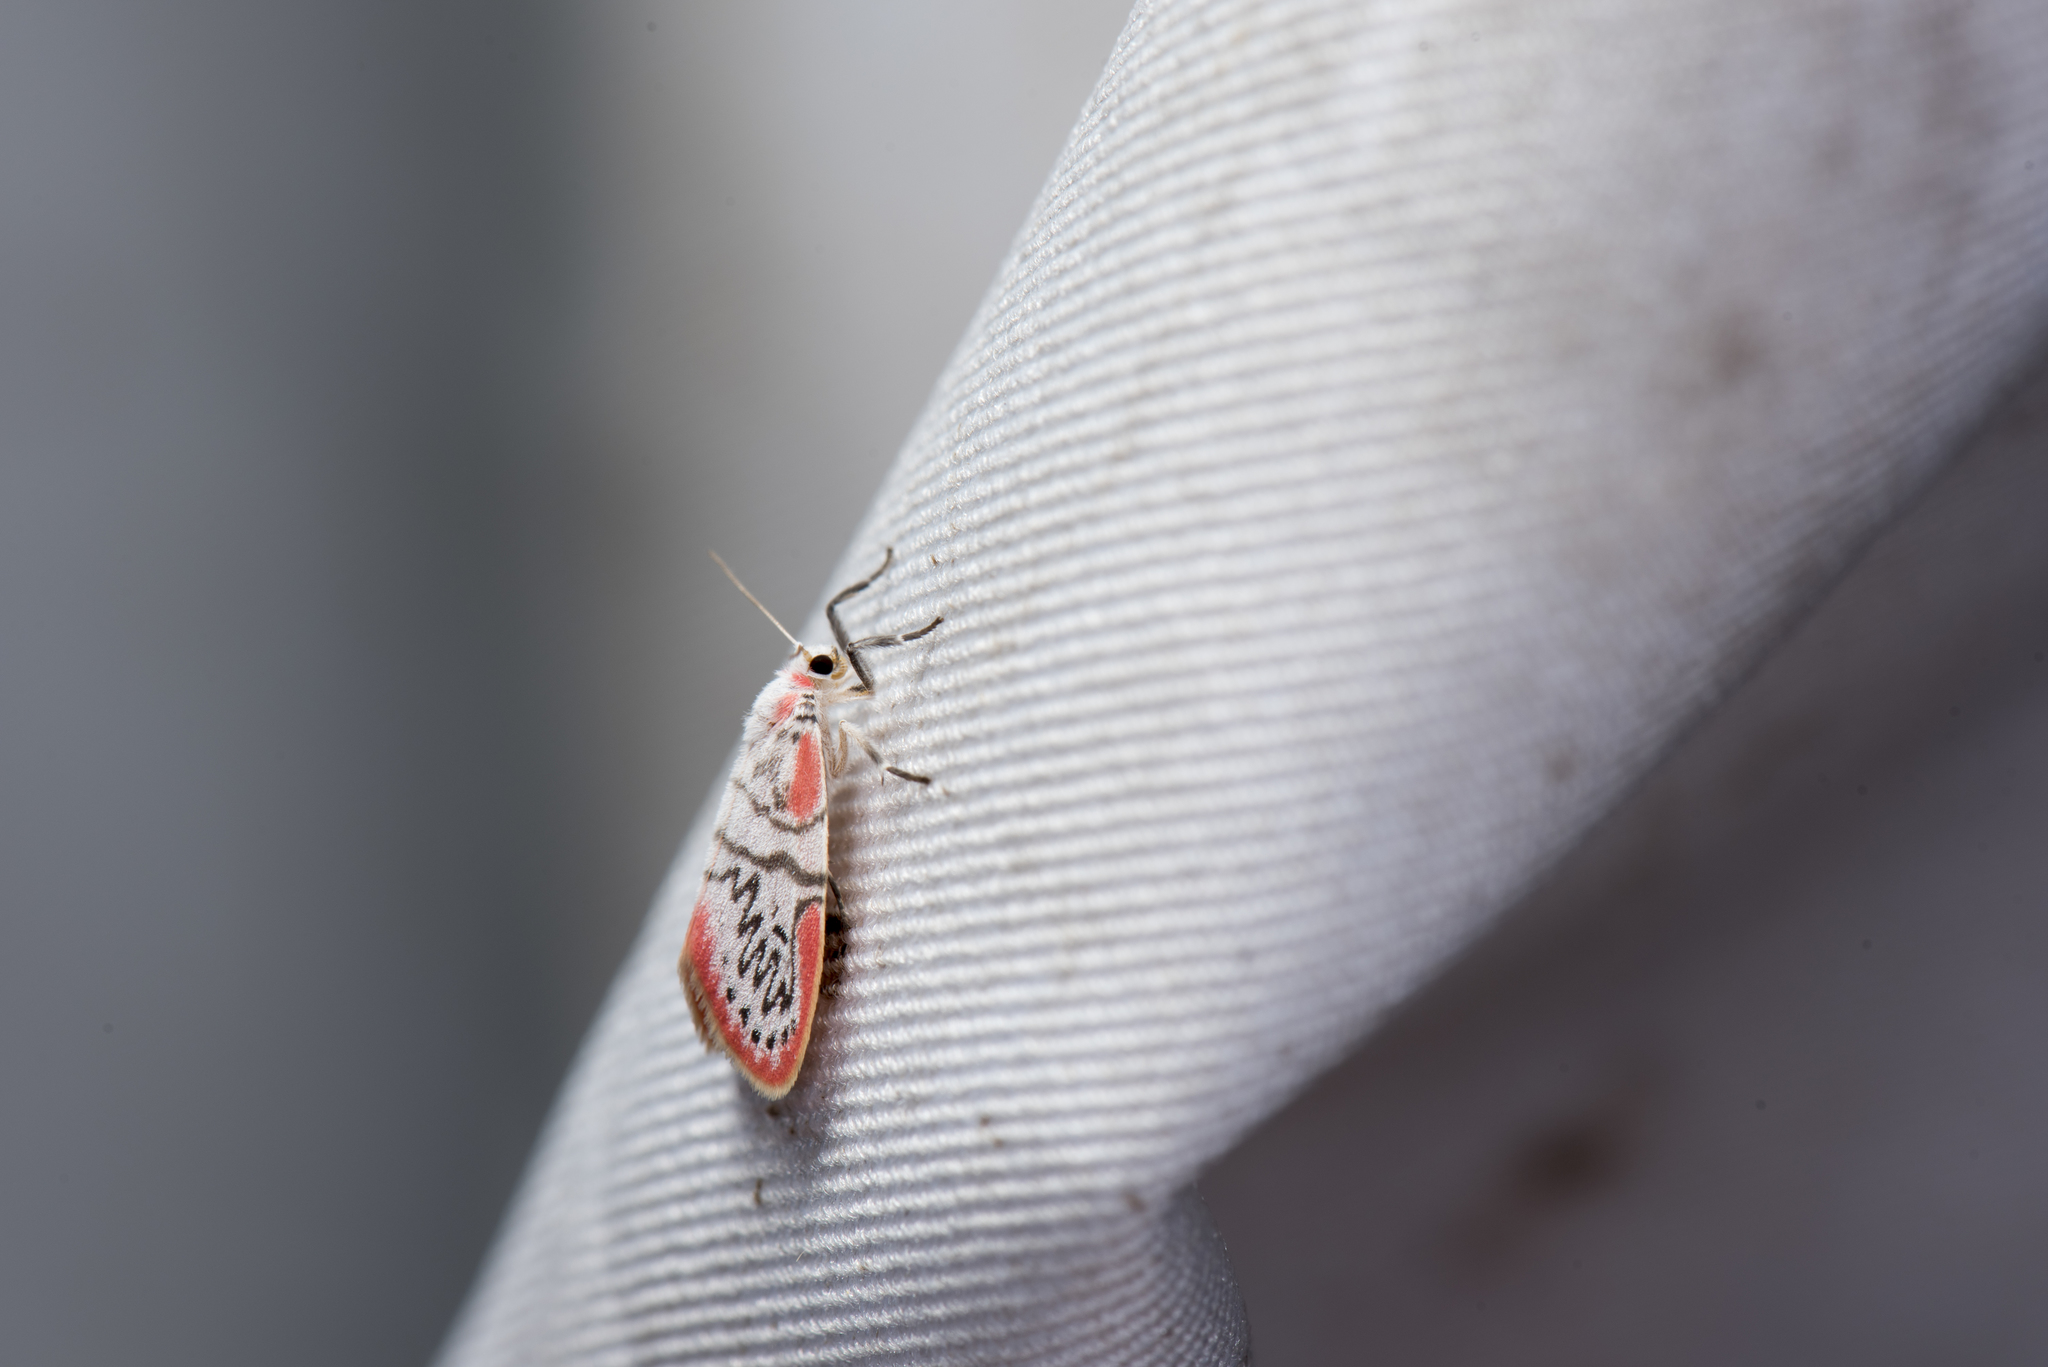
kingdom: Animalia
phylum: Arthropoda
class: Insecta
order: Lepidoptera
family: Erebidae
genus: Miltochrista
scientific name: Miltochrista ziczac
